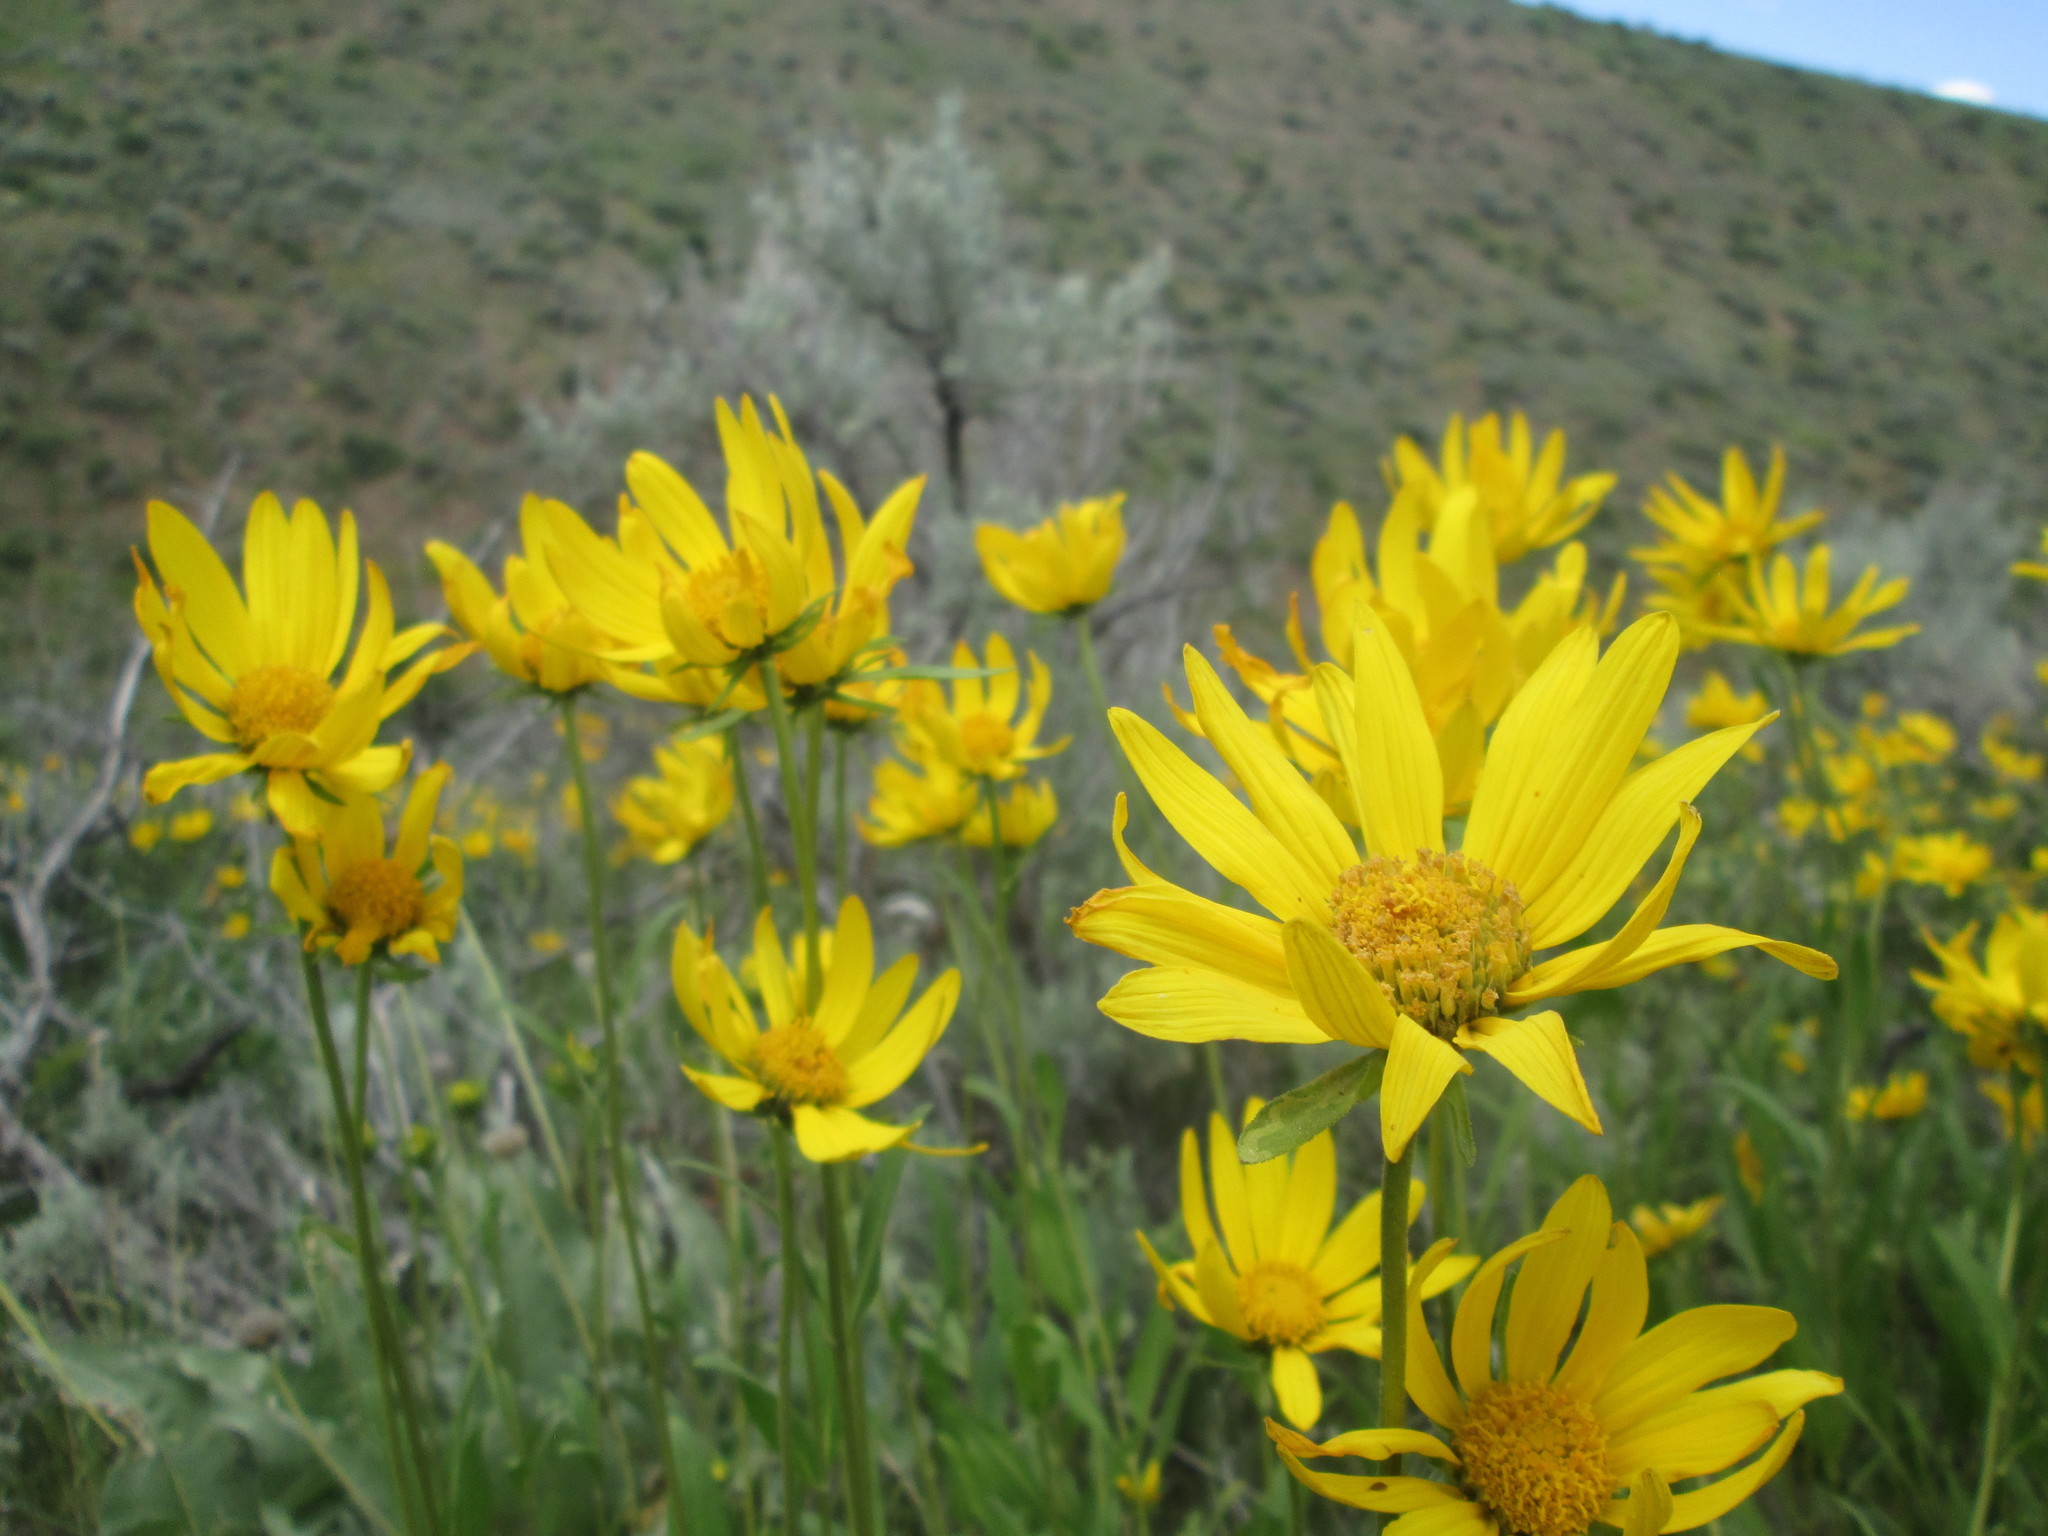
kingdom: Plantae
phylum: Tracheophyta
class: Magnoliopsida
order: Asterales
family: Asteraceae
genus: Helianthella
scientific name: Helianthella uniflora
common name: Rocky mountain dwarf sunflower
